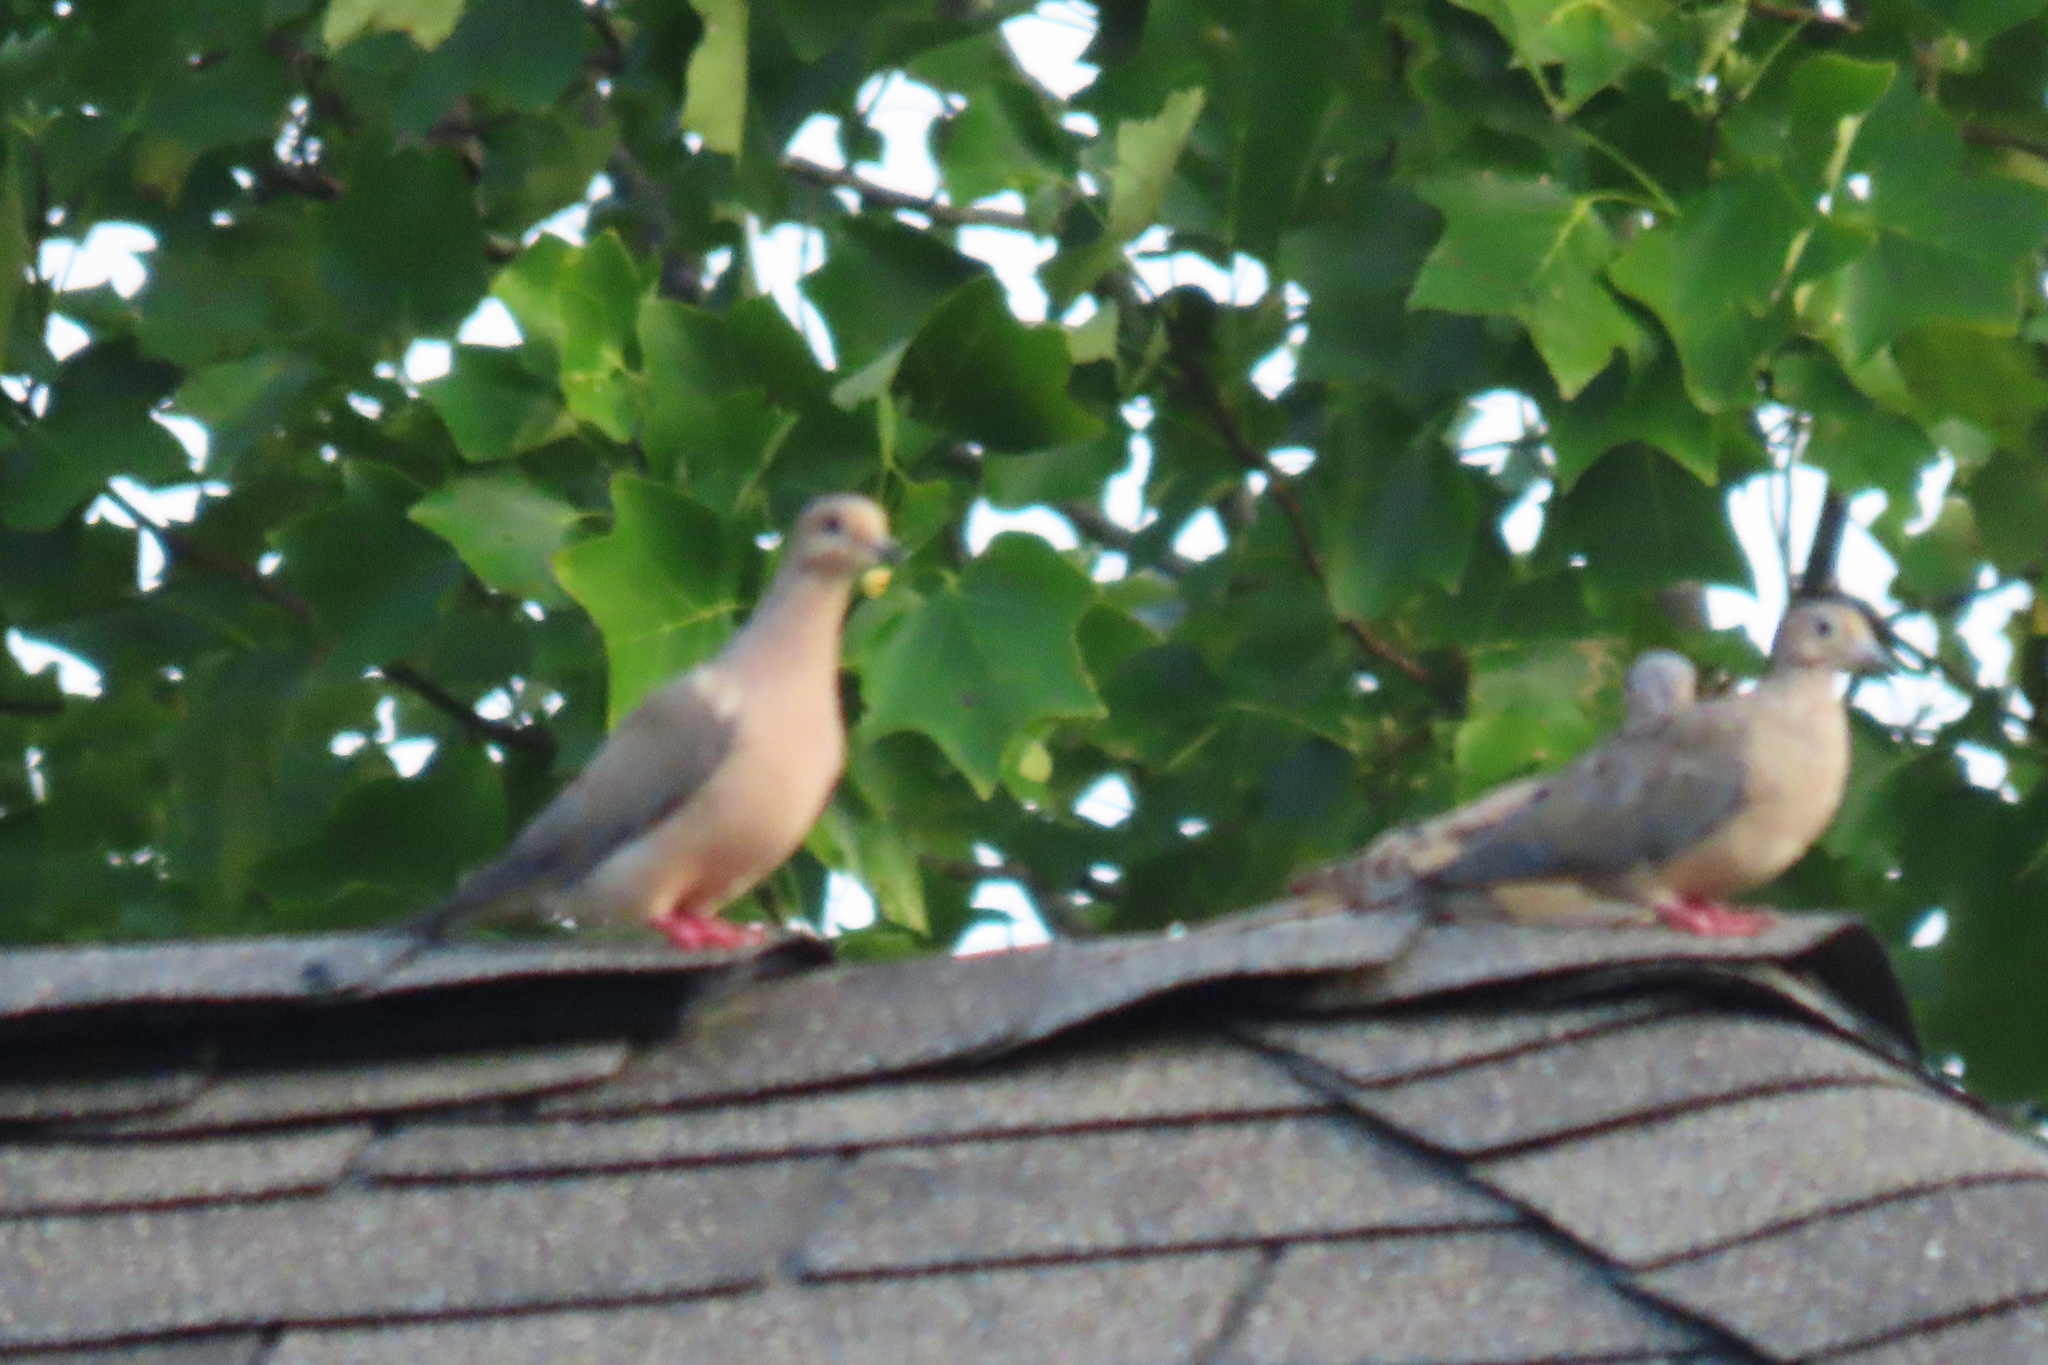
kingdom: Animalia
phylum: Chordata
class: Aves
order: Columbiformes
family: Columbidae
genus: Zenaida
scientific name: Zenaida macroura
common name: Mourning dove
